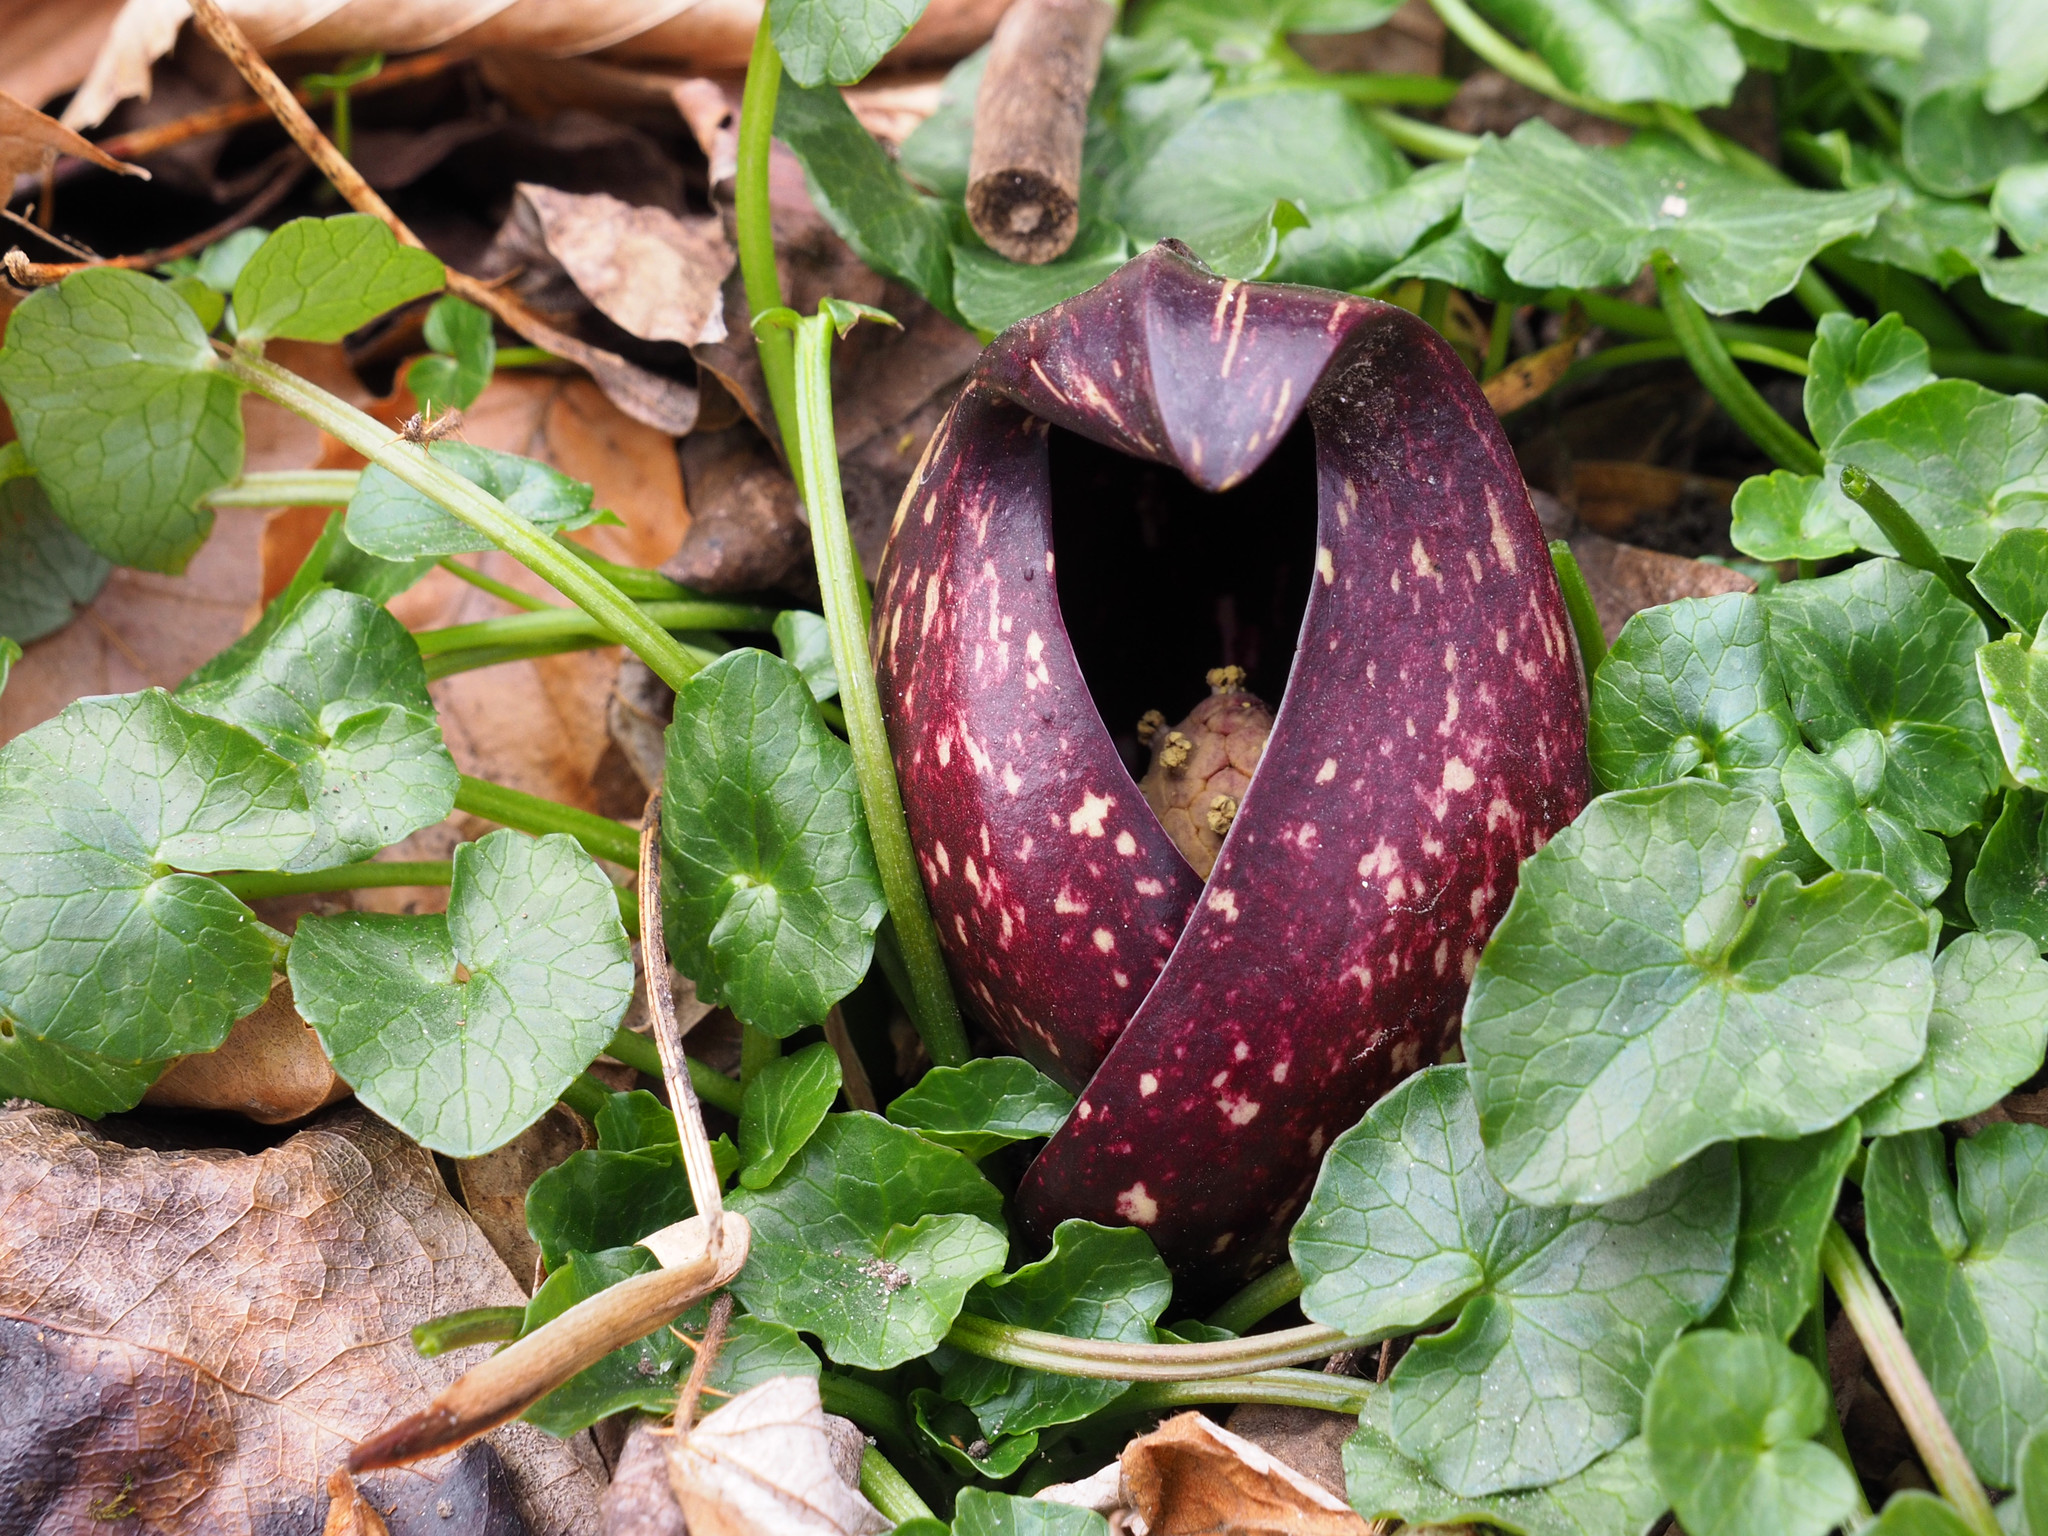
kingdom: Plantae
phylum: Tracheophyta
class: Liliopsida
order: Alismatales
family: Araceae
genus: Symplocarpus
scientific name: Symplocarpus foetidus
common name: Eastern skunk cabbage
